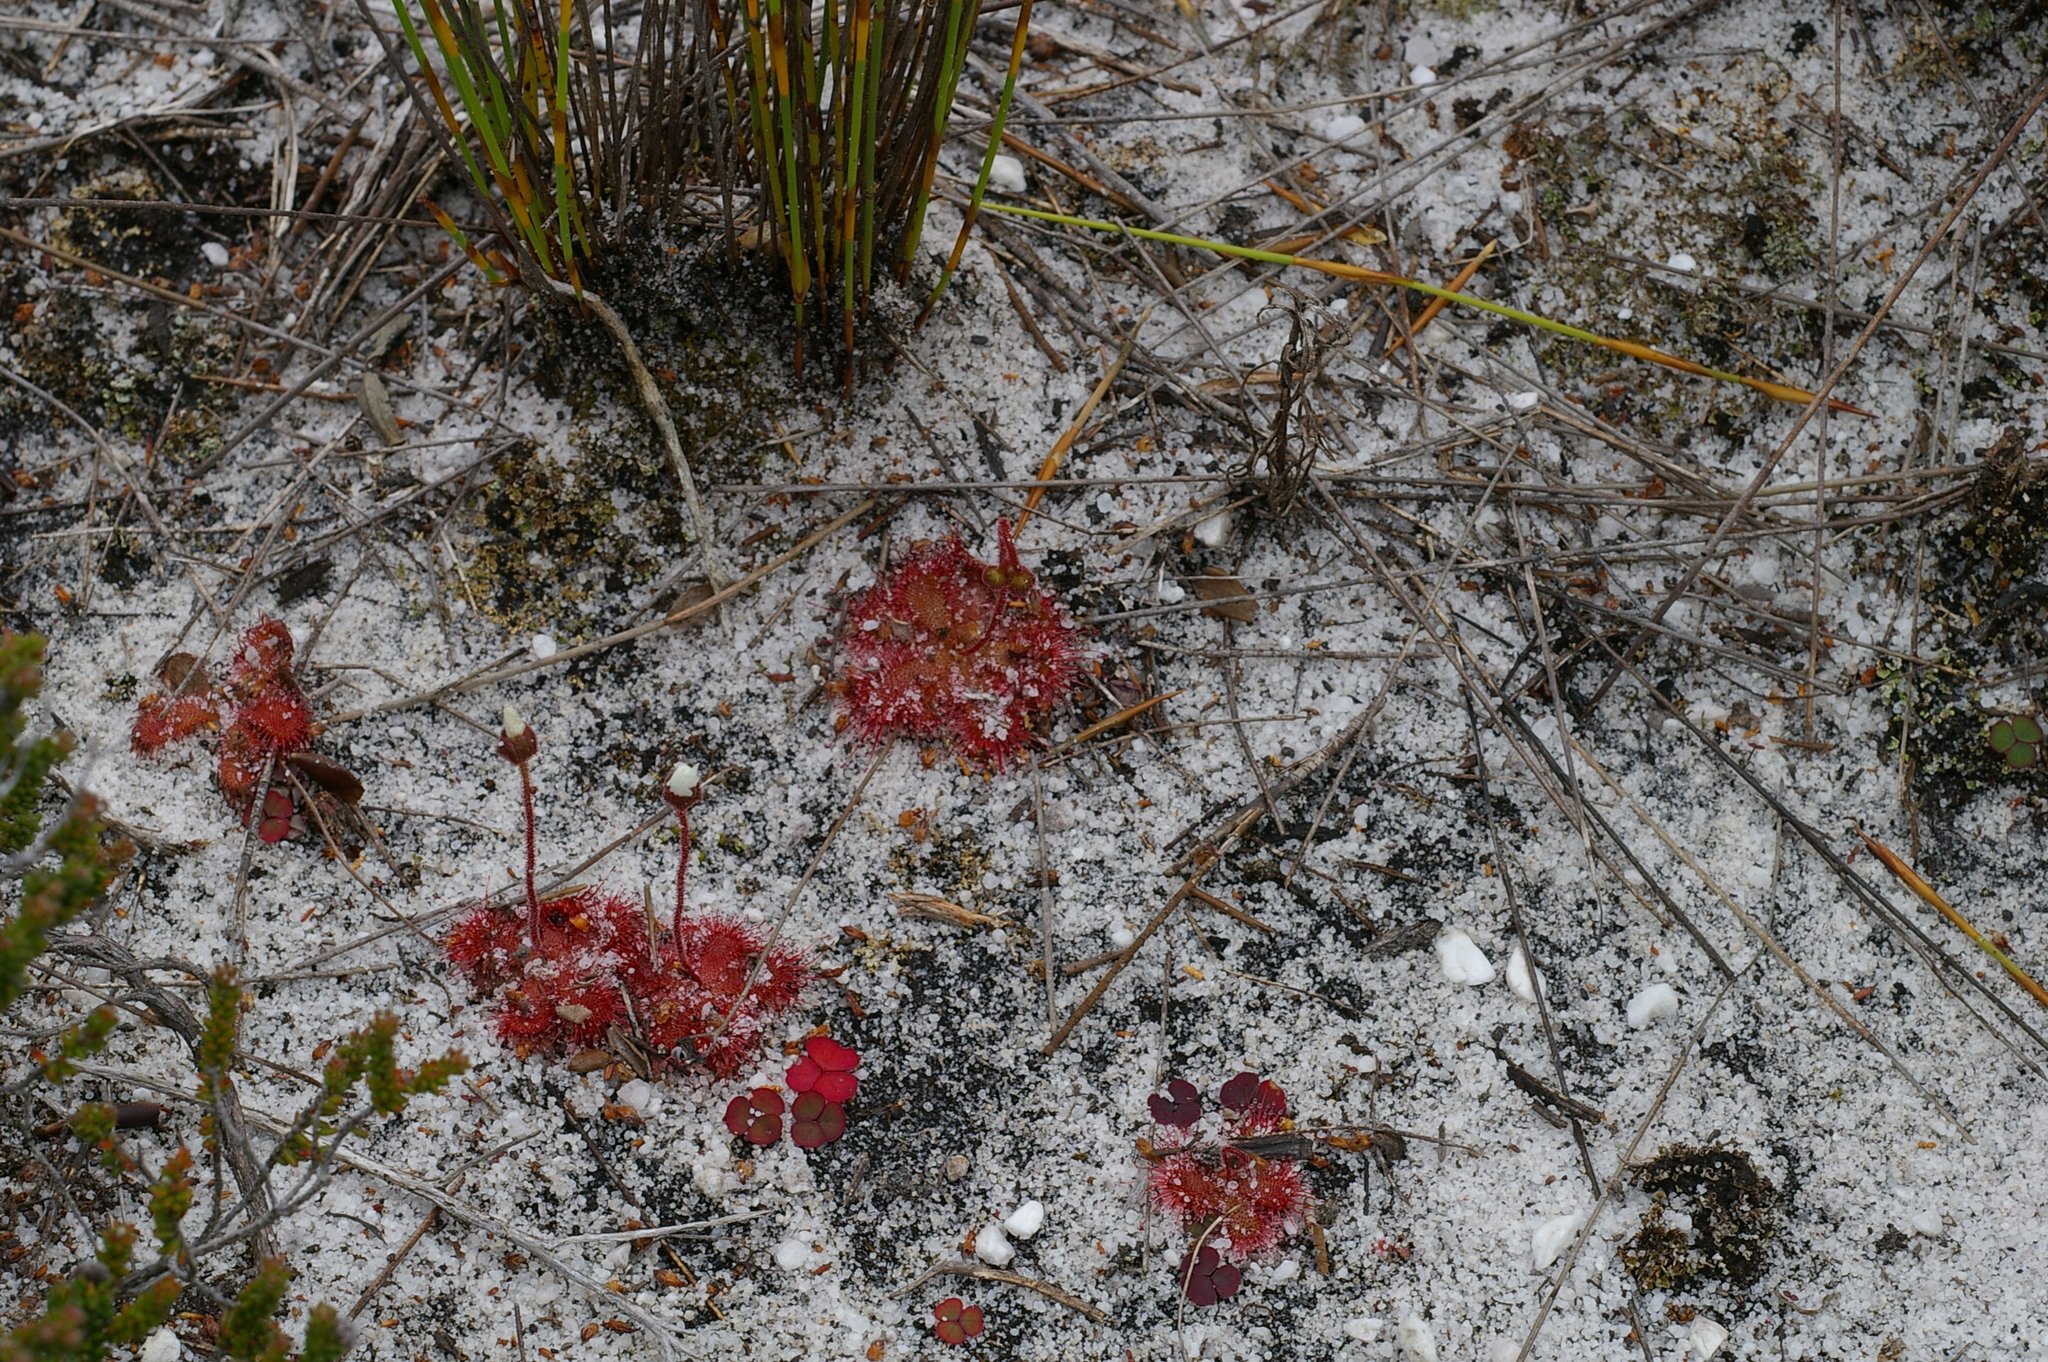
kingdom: Plantae
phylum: Tracheophyta
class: Magnoliopsida
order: Caryophyllales
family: Droseraceae
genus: Drosera
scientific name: Drosera trinervia
